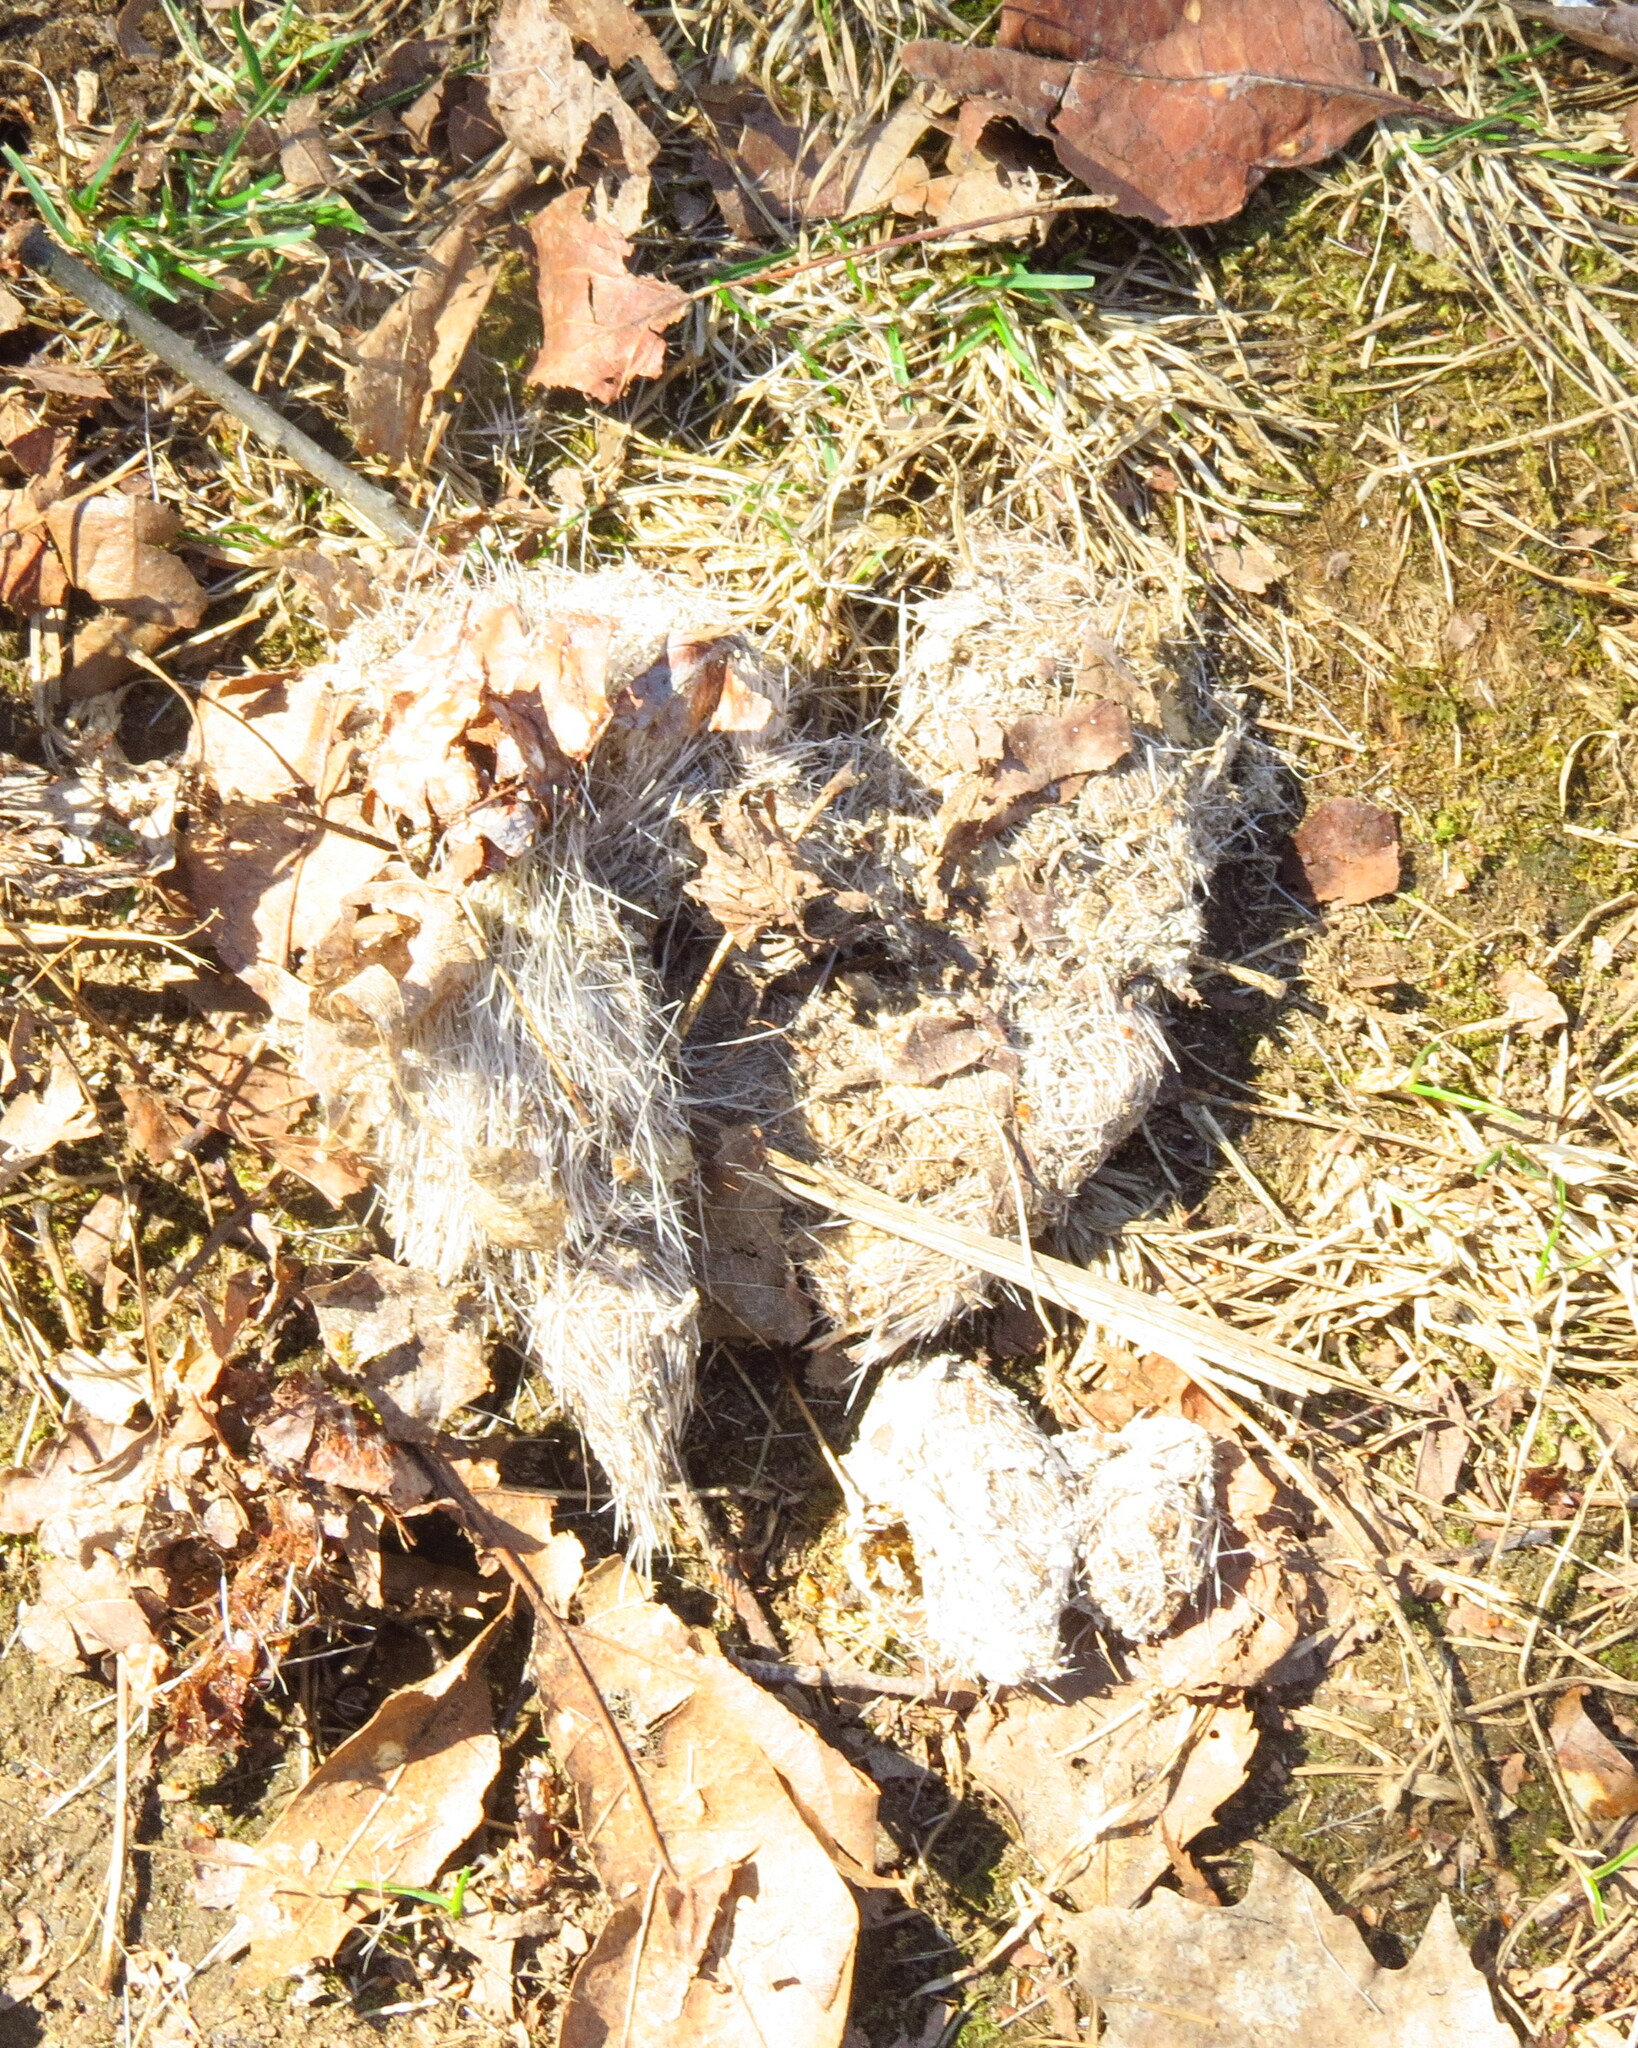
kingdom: Animalia
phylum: Chordata
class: Mammalia
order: Carnivora
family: Canidae
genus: Canis
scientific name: Canis latrans
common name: Coyote
